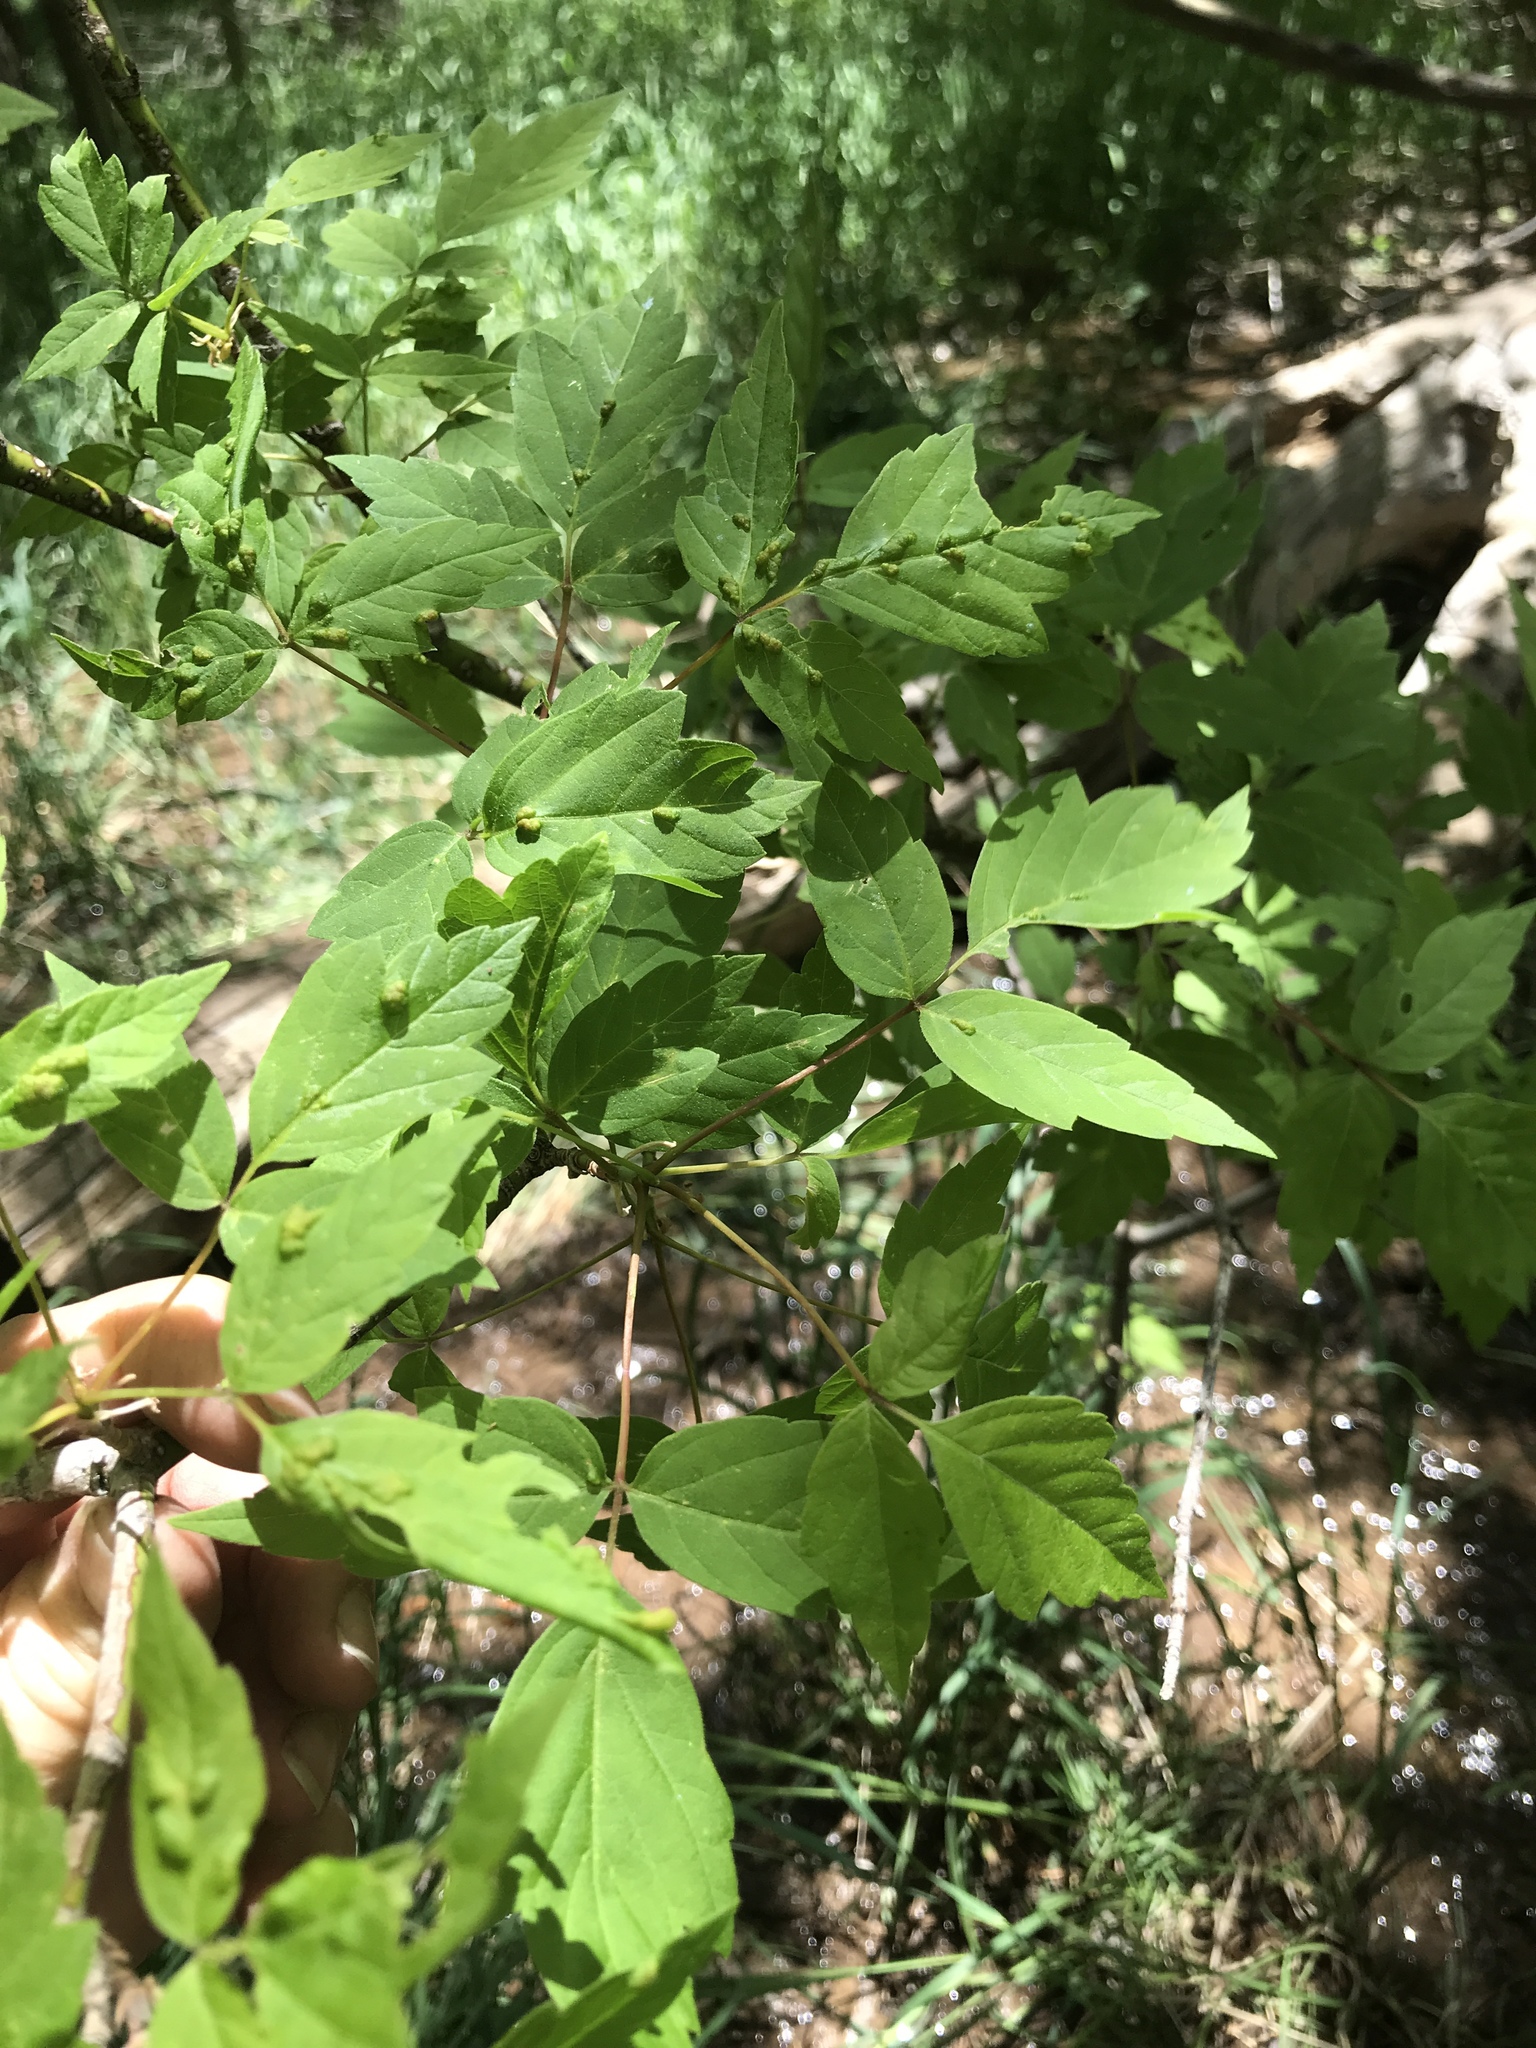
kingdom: Plantae
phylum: Tracheophyta
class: Magnoliopsida
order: Sapindales
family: Sapindaceae
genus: Acer
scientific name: Acer negundo
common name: Ashleaf maple
